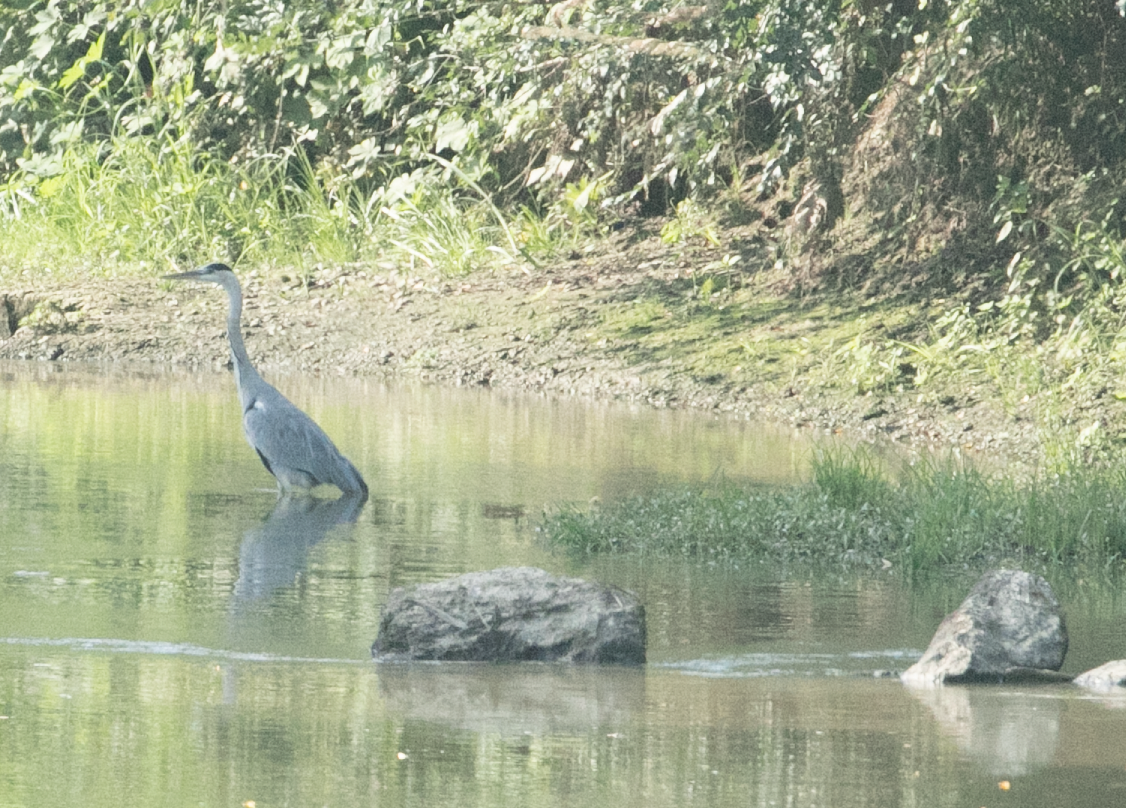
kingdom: Animalia
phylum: Chordata
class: Aves
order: Pelecaniformes
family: Ardeidae
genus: Ardea
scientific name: Ardea cinerea
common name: Grey heron
